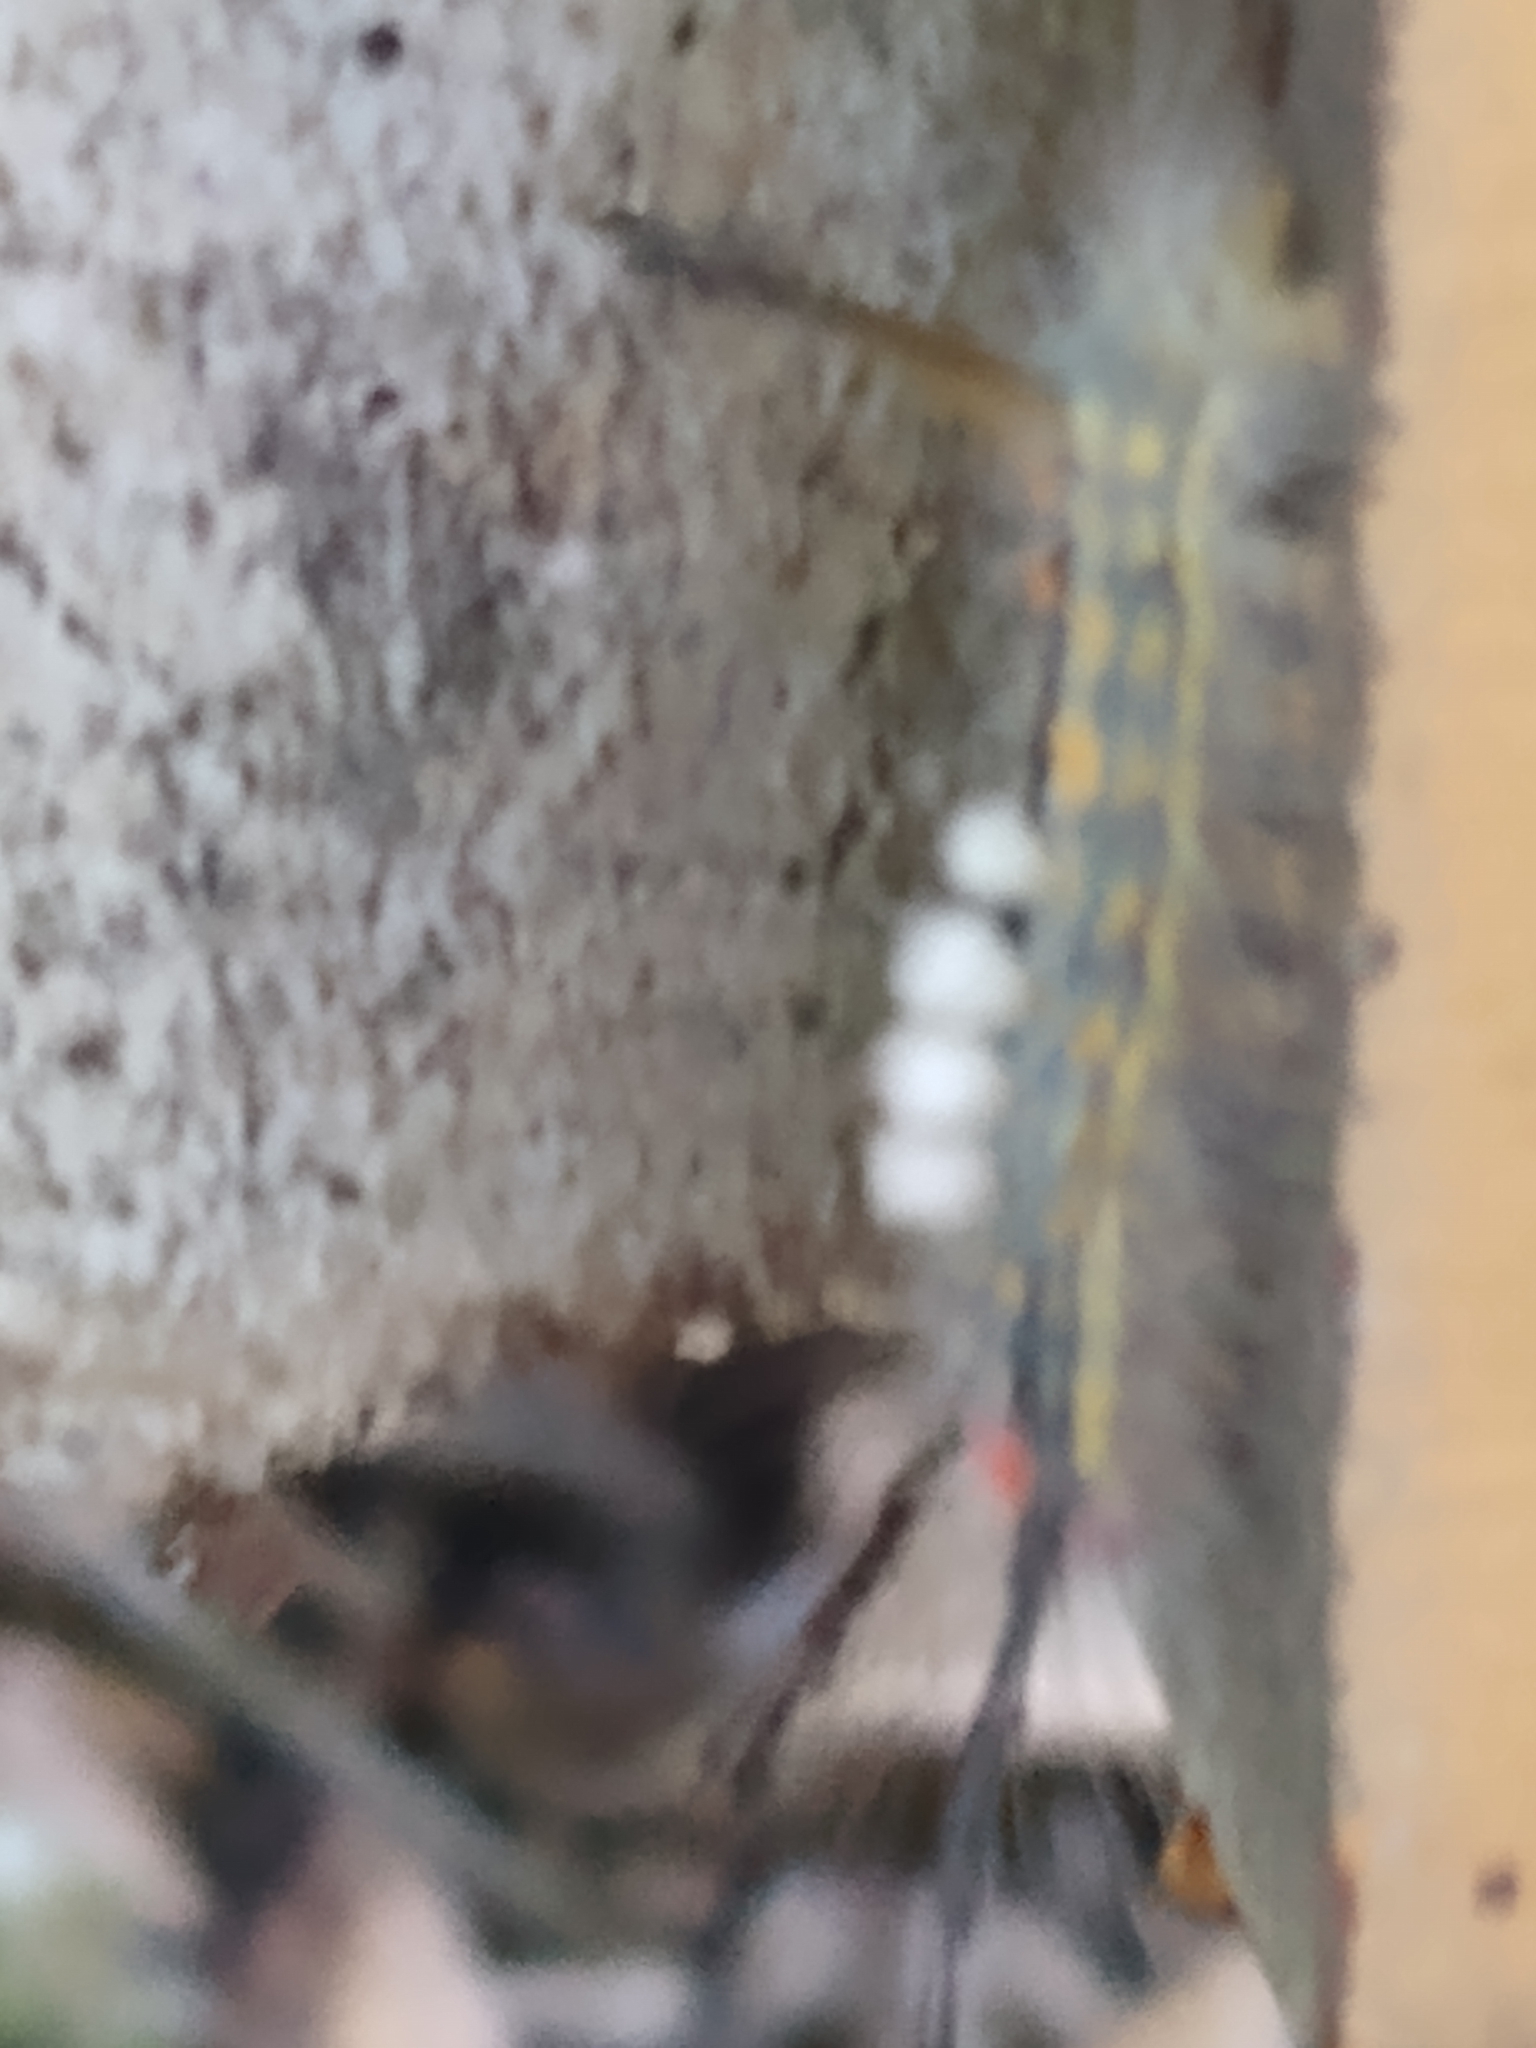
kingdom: Animalia
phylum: Arthropoda
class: Insecta
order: Lepidoptera
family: Erebidae
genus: Orgyia
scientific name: Orgyia detrita
